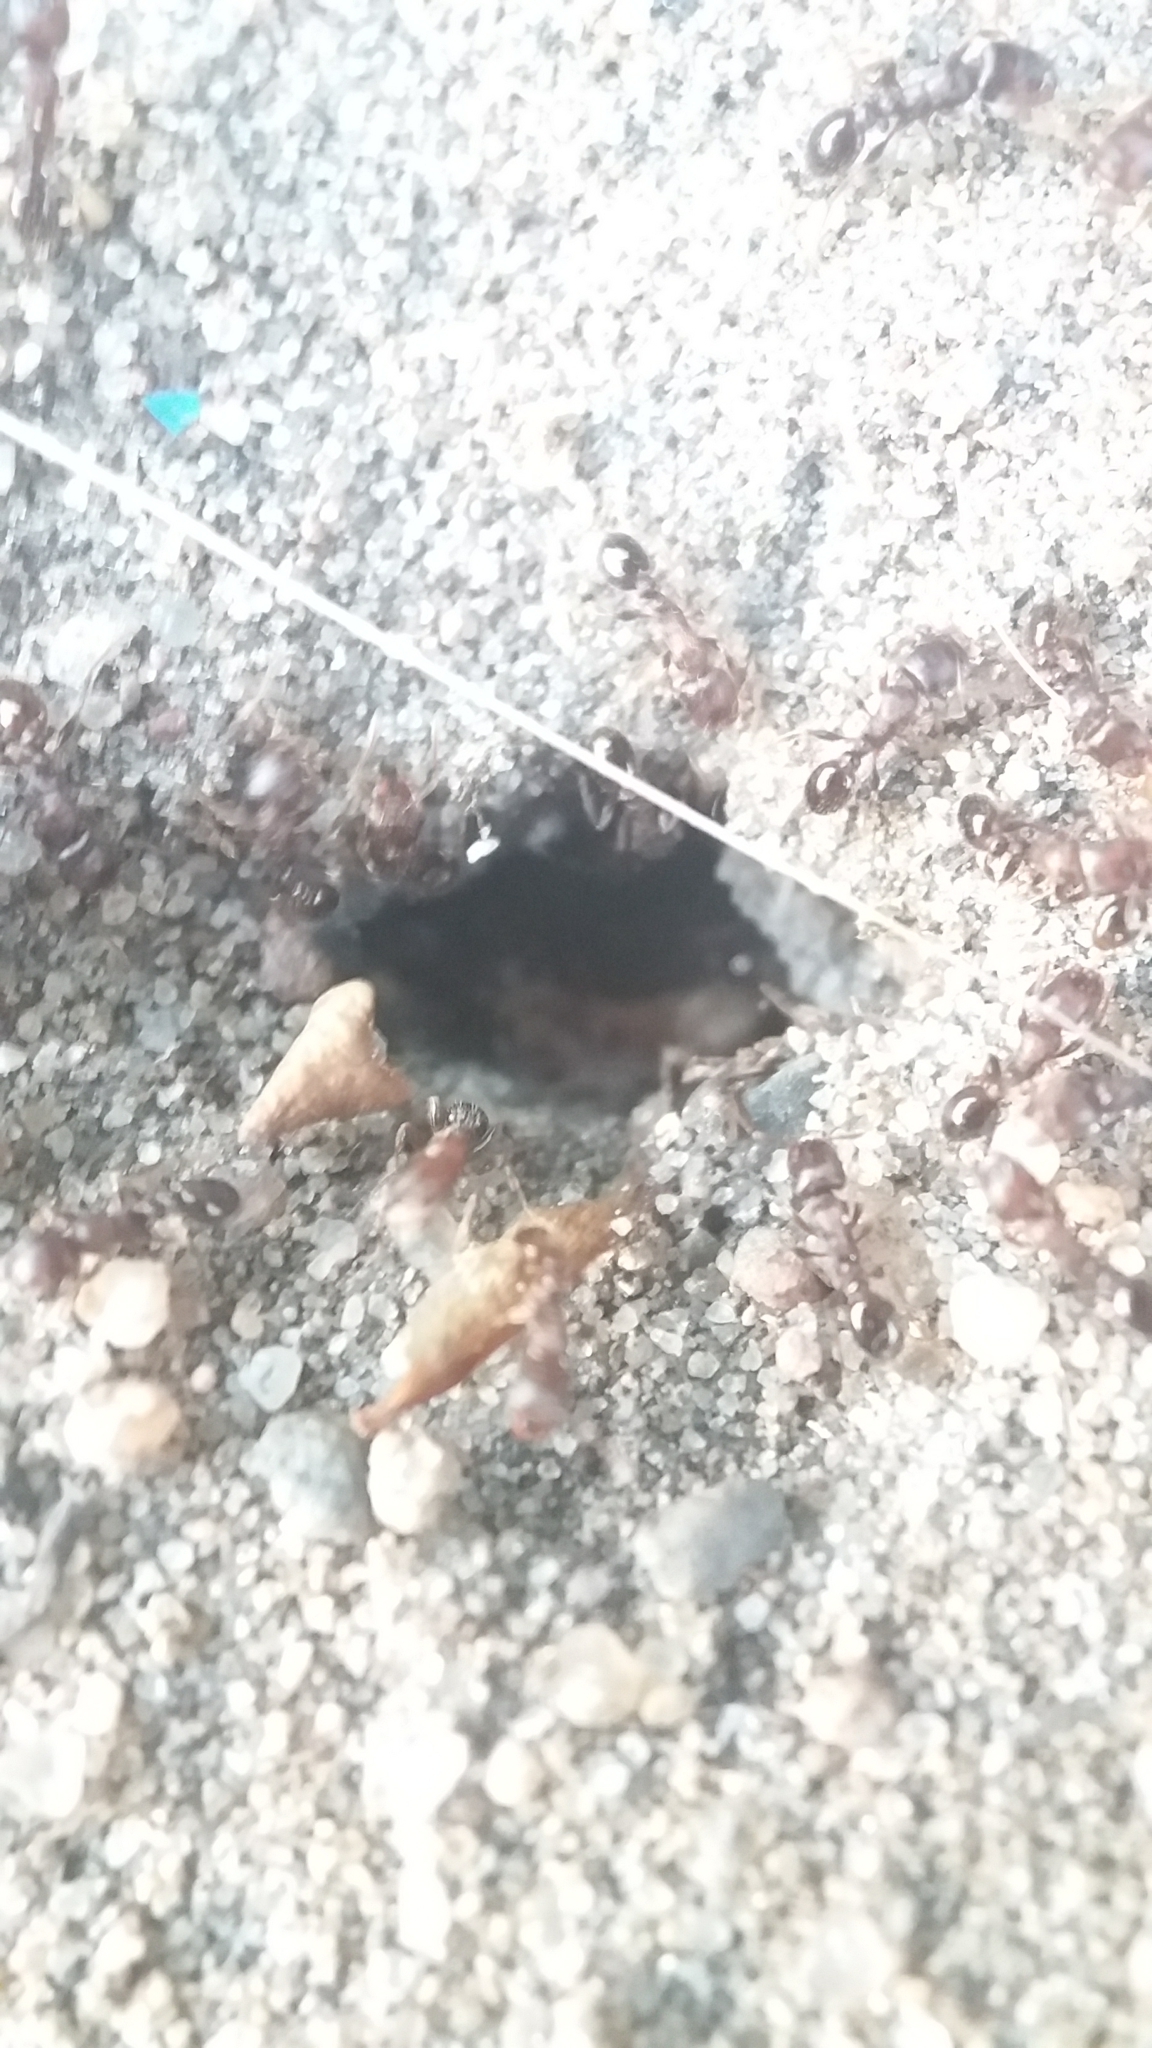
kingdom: Animalia
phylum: Arthropoda
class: Insecta
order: Hymenoptera
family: Formicidae
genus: Tetramorium
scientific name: Tetramorium
